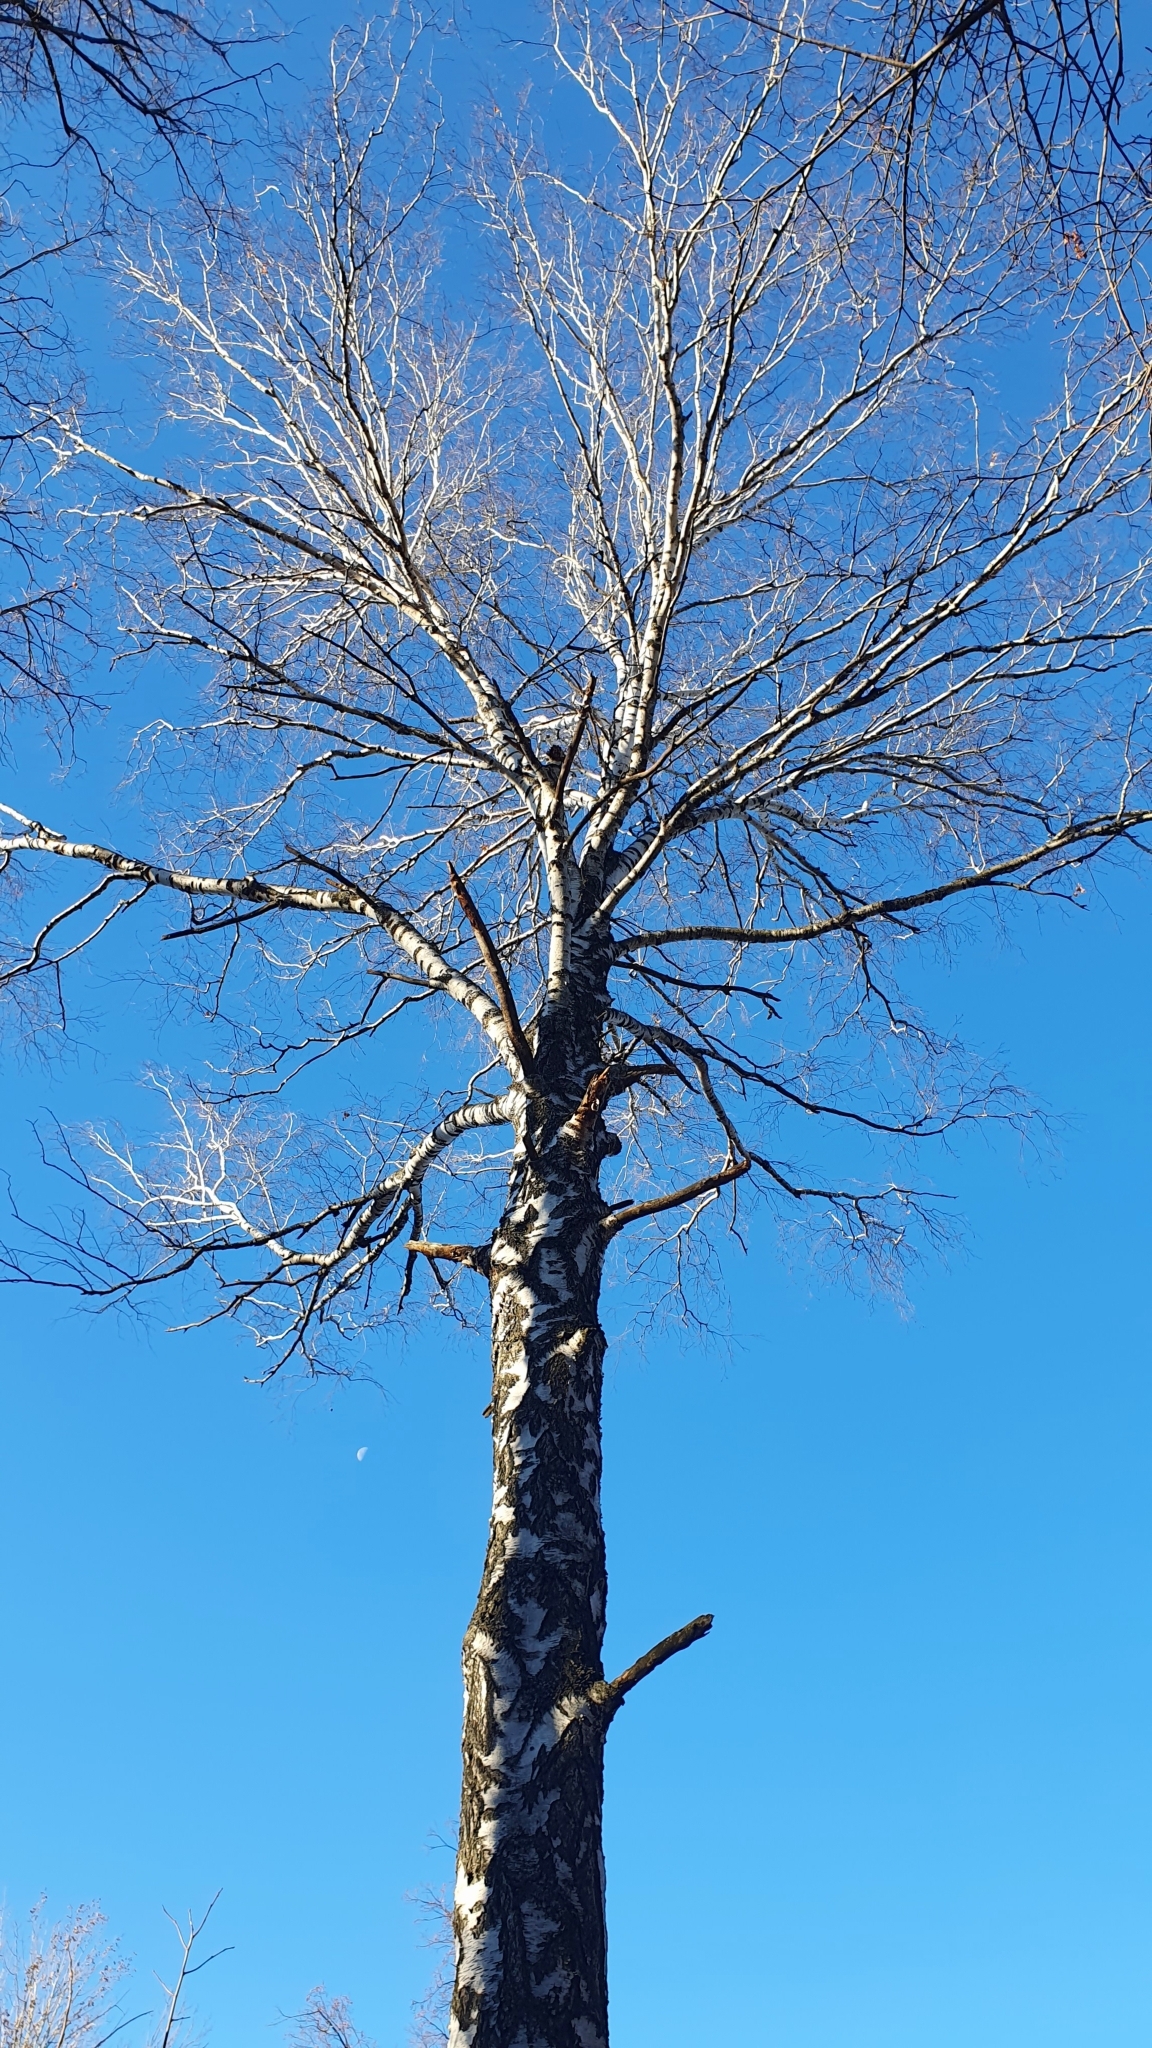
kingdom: Plantae
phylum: Tracheophyta
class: Magnoliopsida
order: Fagales
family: Betulaceae
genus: Betula
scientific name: Betula pendula
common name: Silver birch
